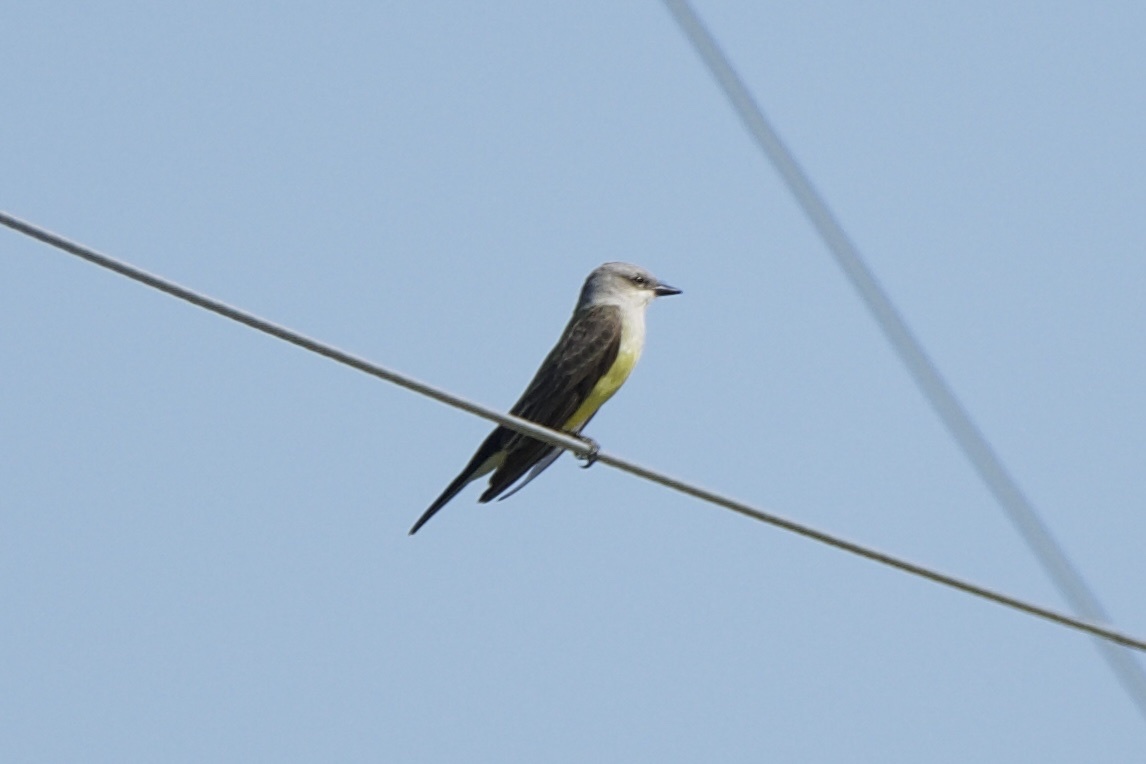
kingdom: Animalia
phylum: Chordata
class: Aves
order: Passeriformes
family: Tyrannidae
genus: Tyrannus
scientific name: Tyrannus verticalis
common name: Western kingbird
